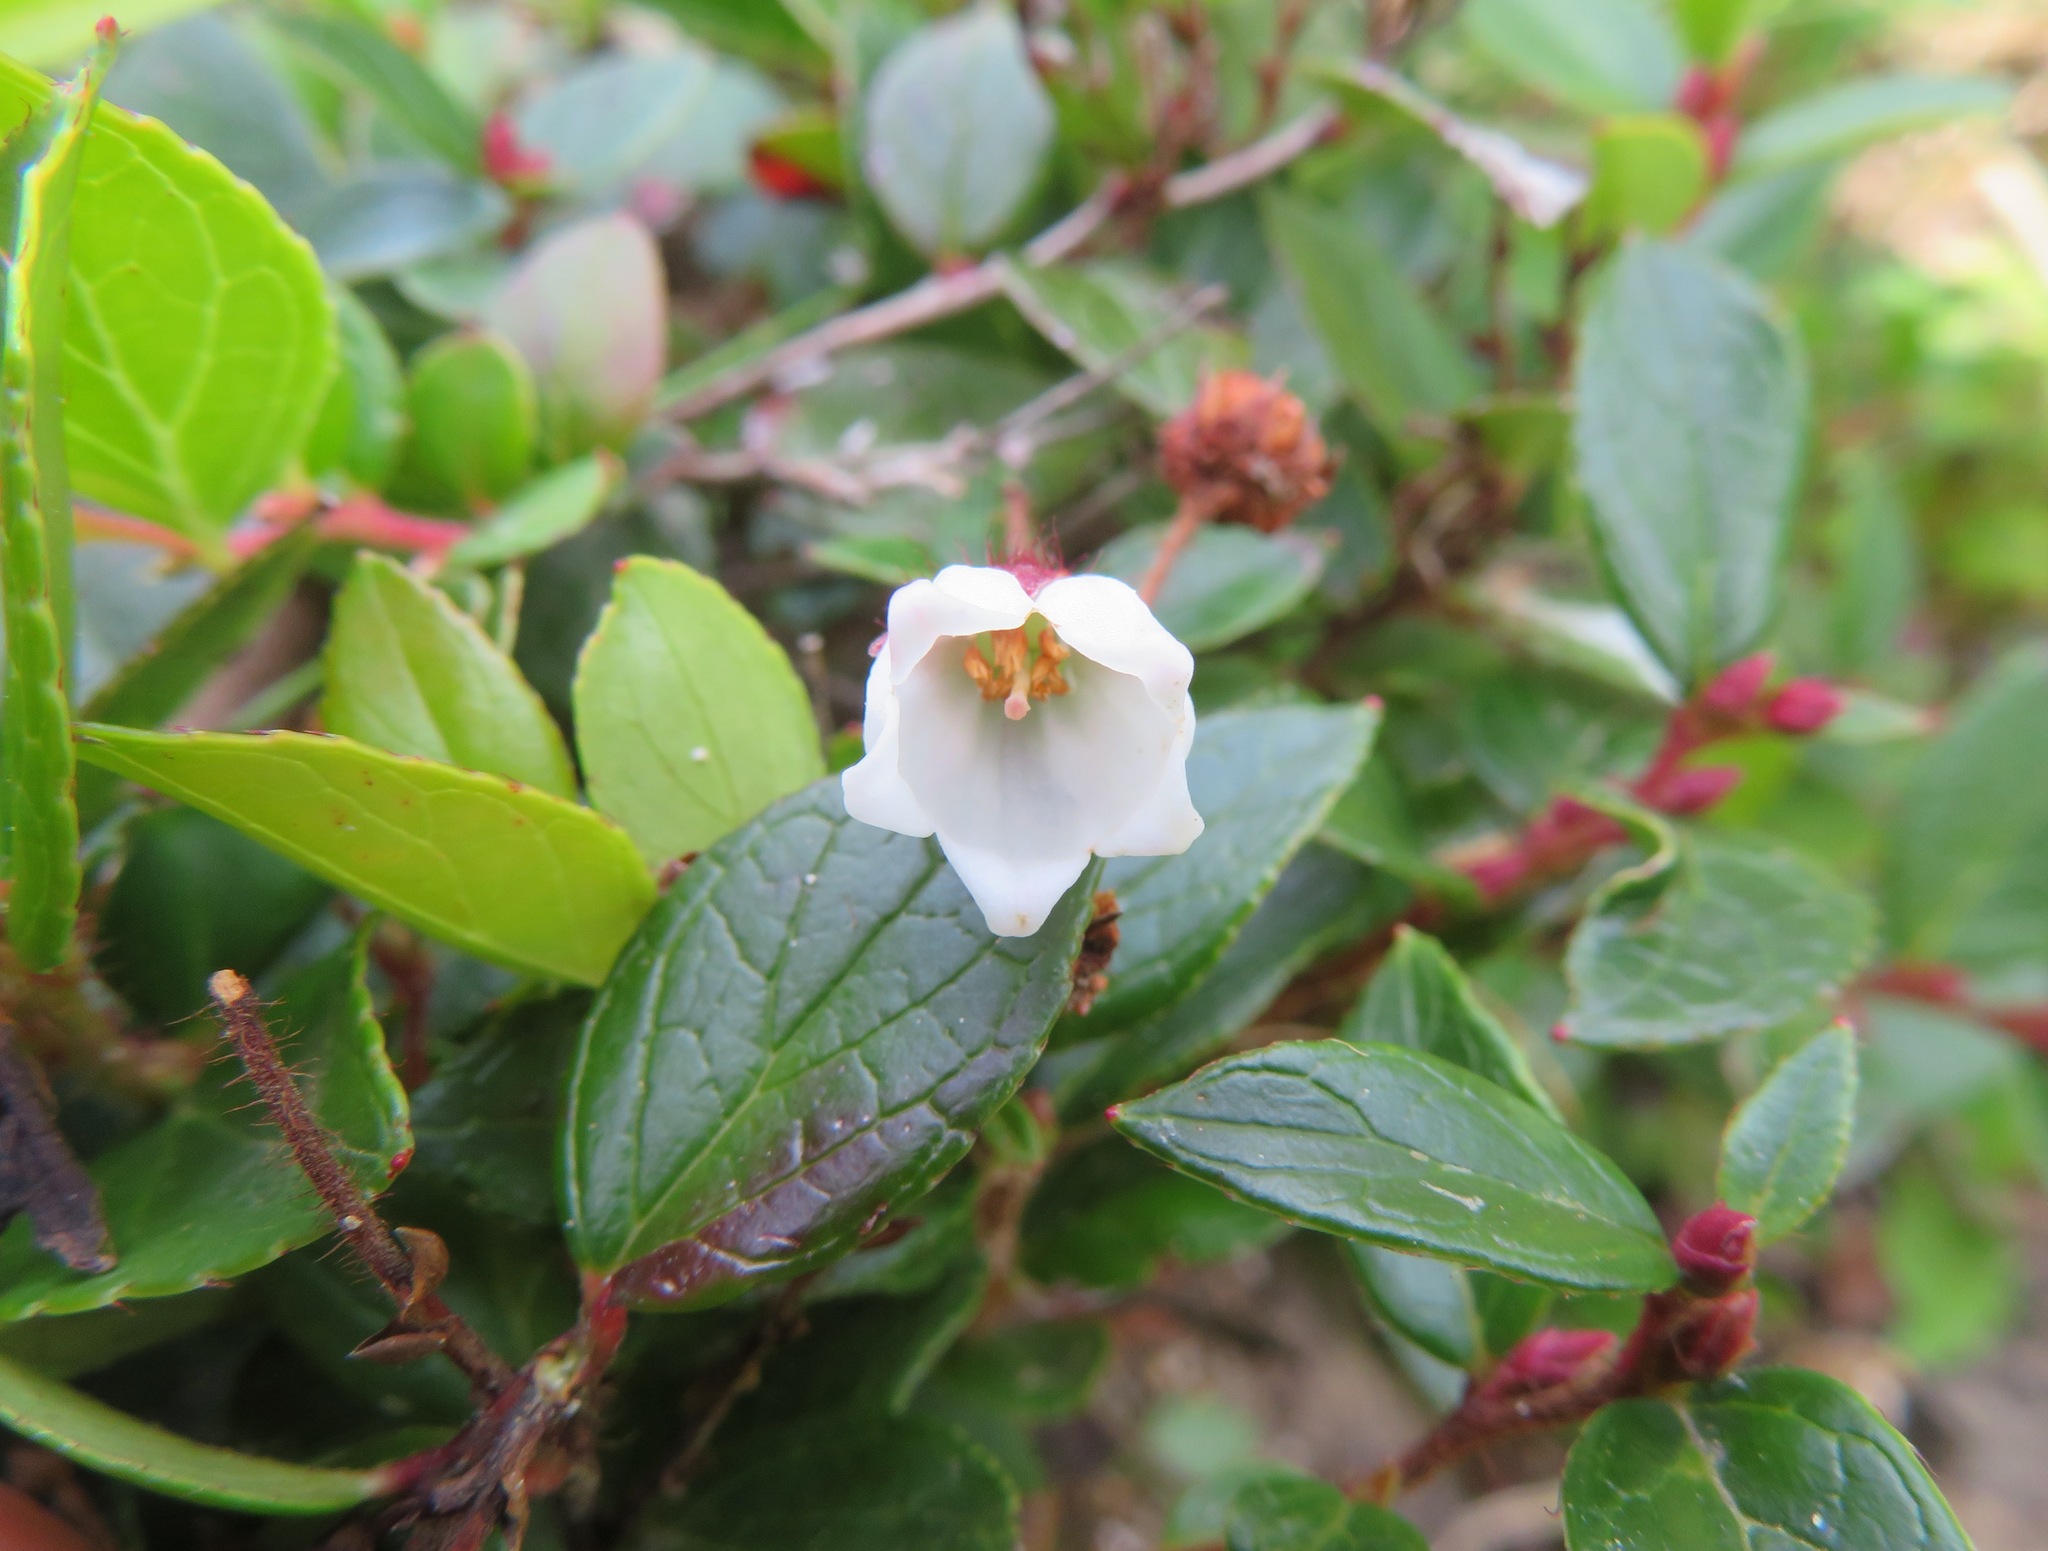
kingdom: Plantae
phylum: Tracheophyta
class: Magnoliopsida
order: Ericales
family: Ericaceae
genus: Gaultheria
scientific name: Gaultheria adenothrix
